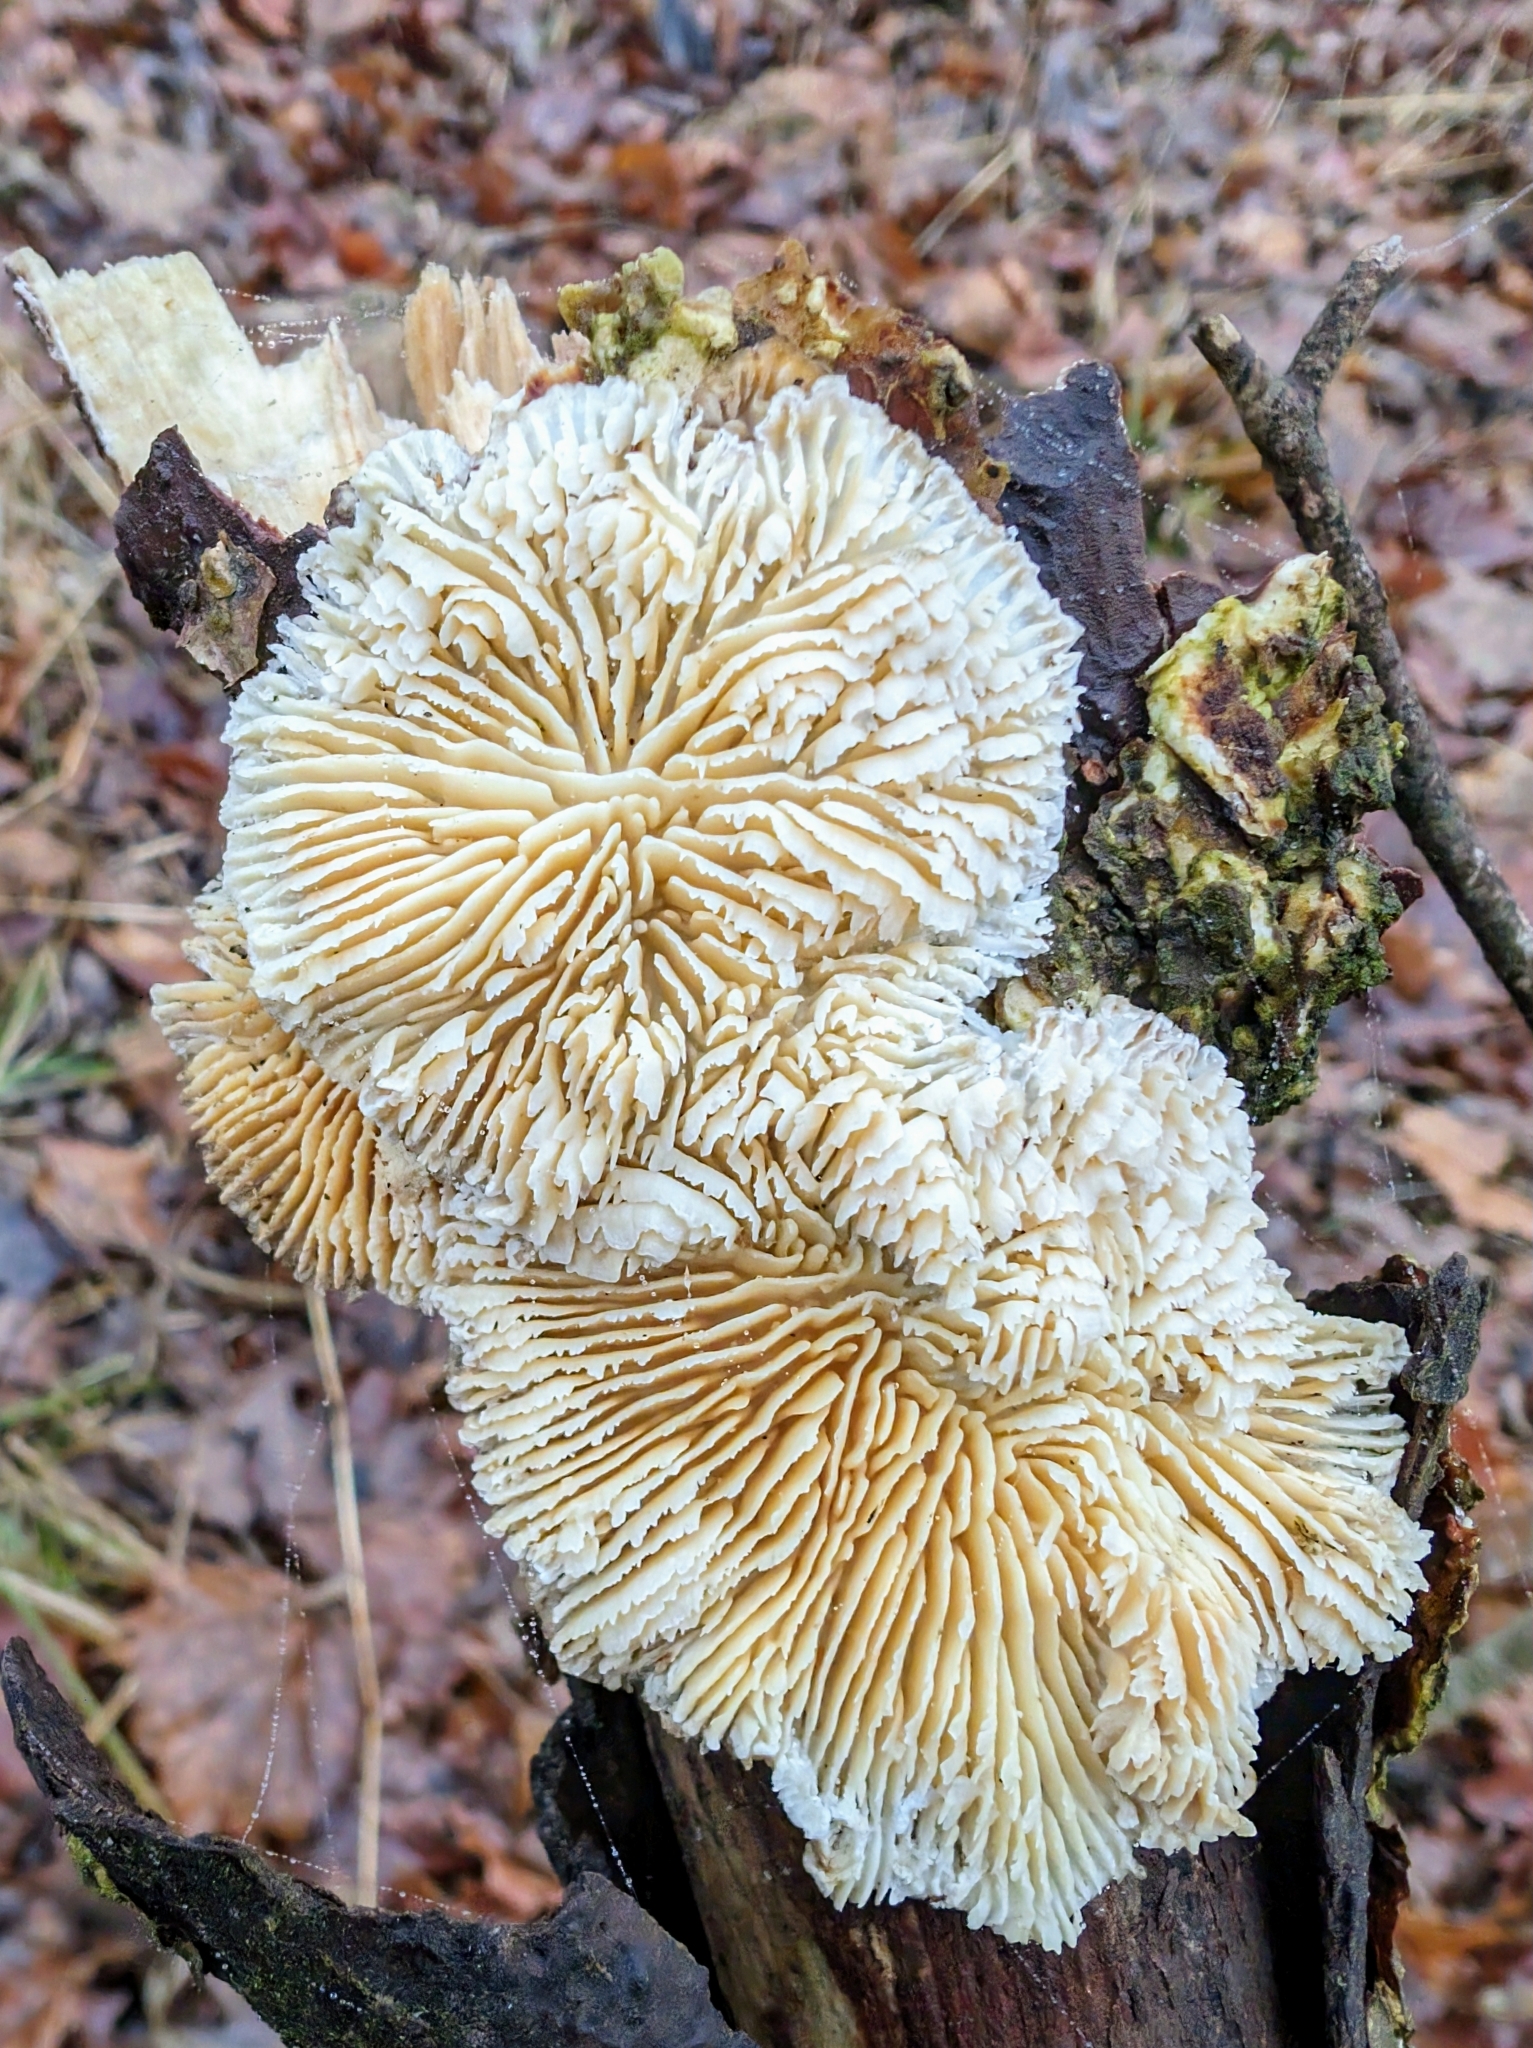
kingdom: Fungi
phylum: Basidiomycota
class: Agaricomycetes
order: Polyporales
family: Polyporaceae
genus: Lenzites
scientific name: Lenzites betulinus
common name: Birch mazegill
